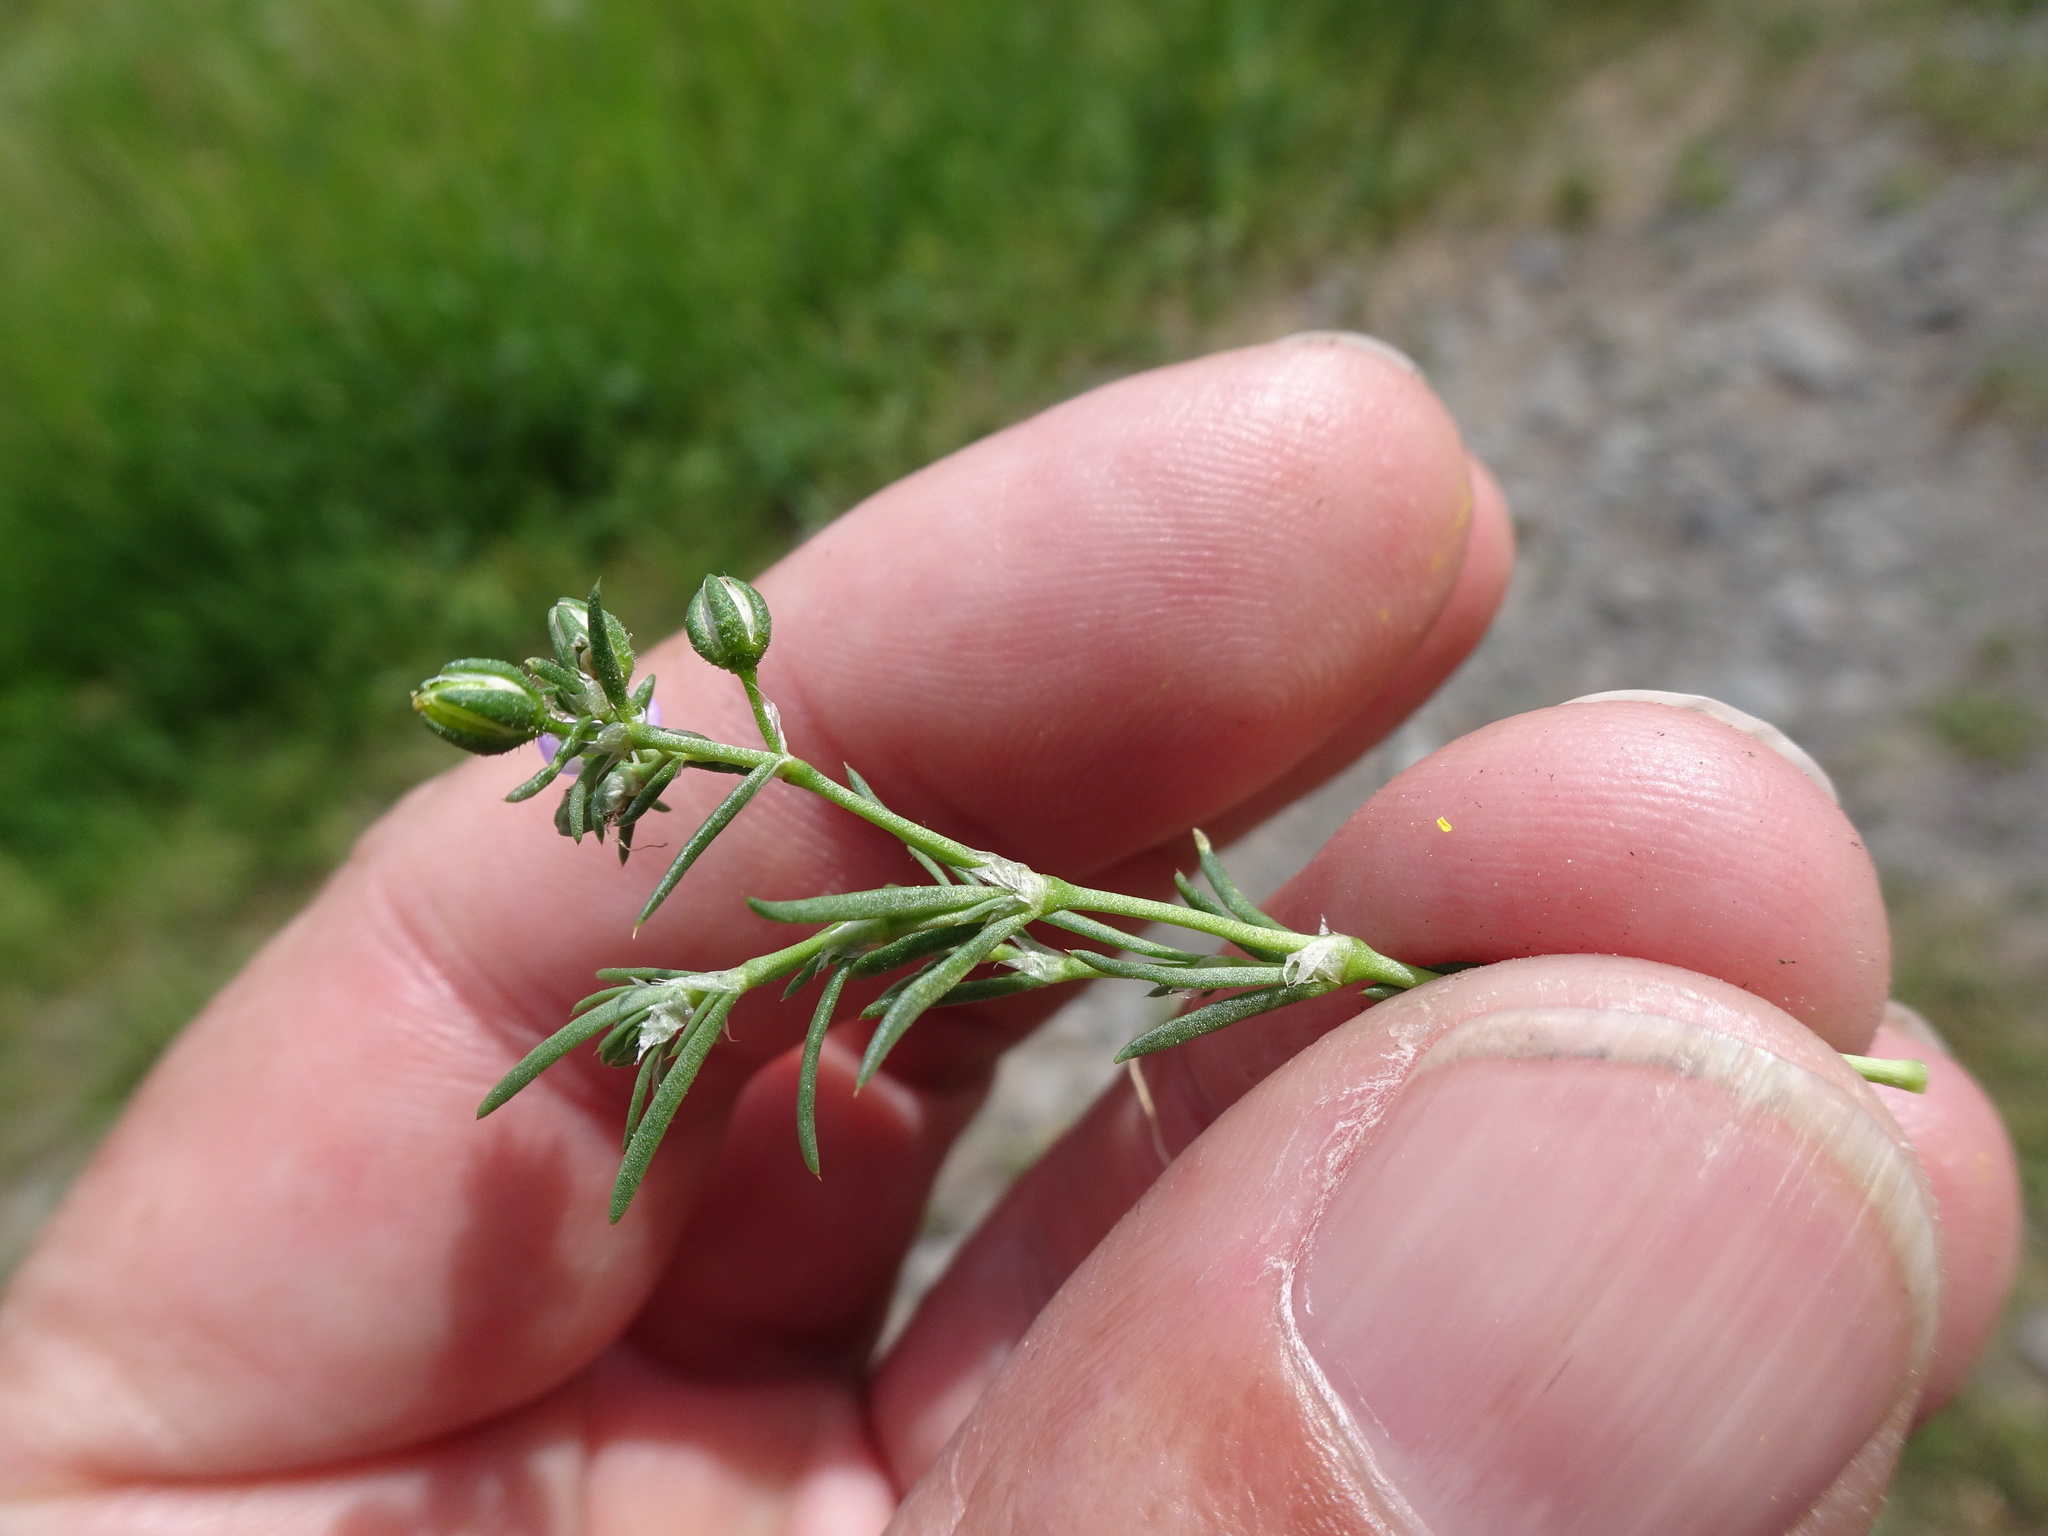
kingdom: Plantae
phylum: Tracheophyta
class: Magnoliopsida
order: Caryophyllales
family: Caryophyllaceae
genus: Spergularia
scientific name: Spergularia rubra
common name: Red sand-spurrey
